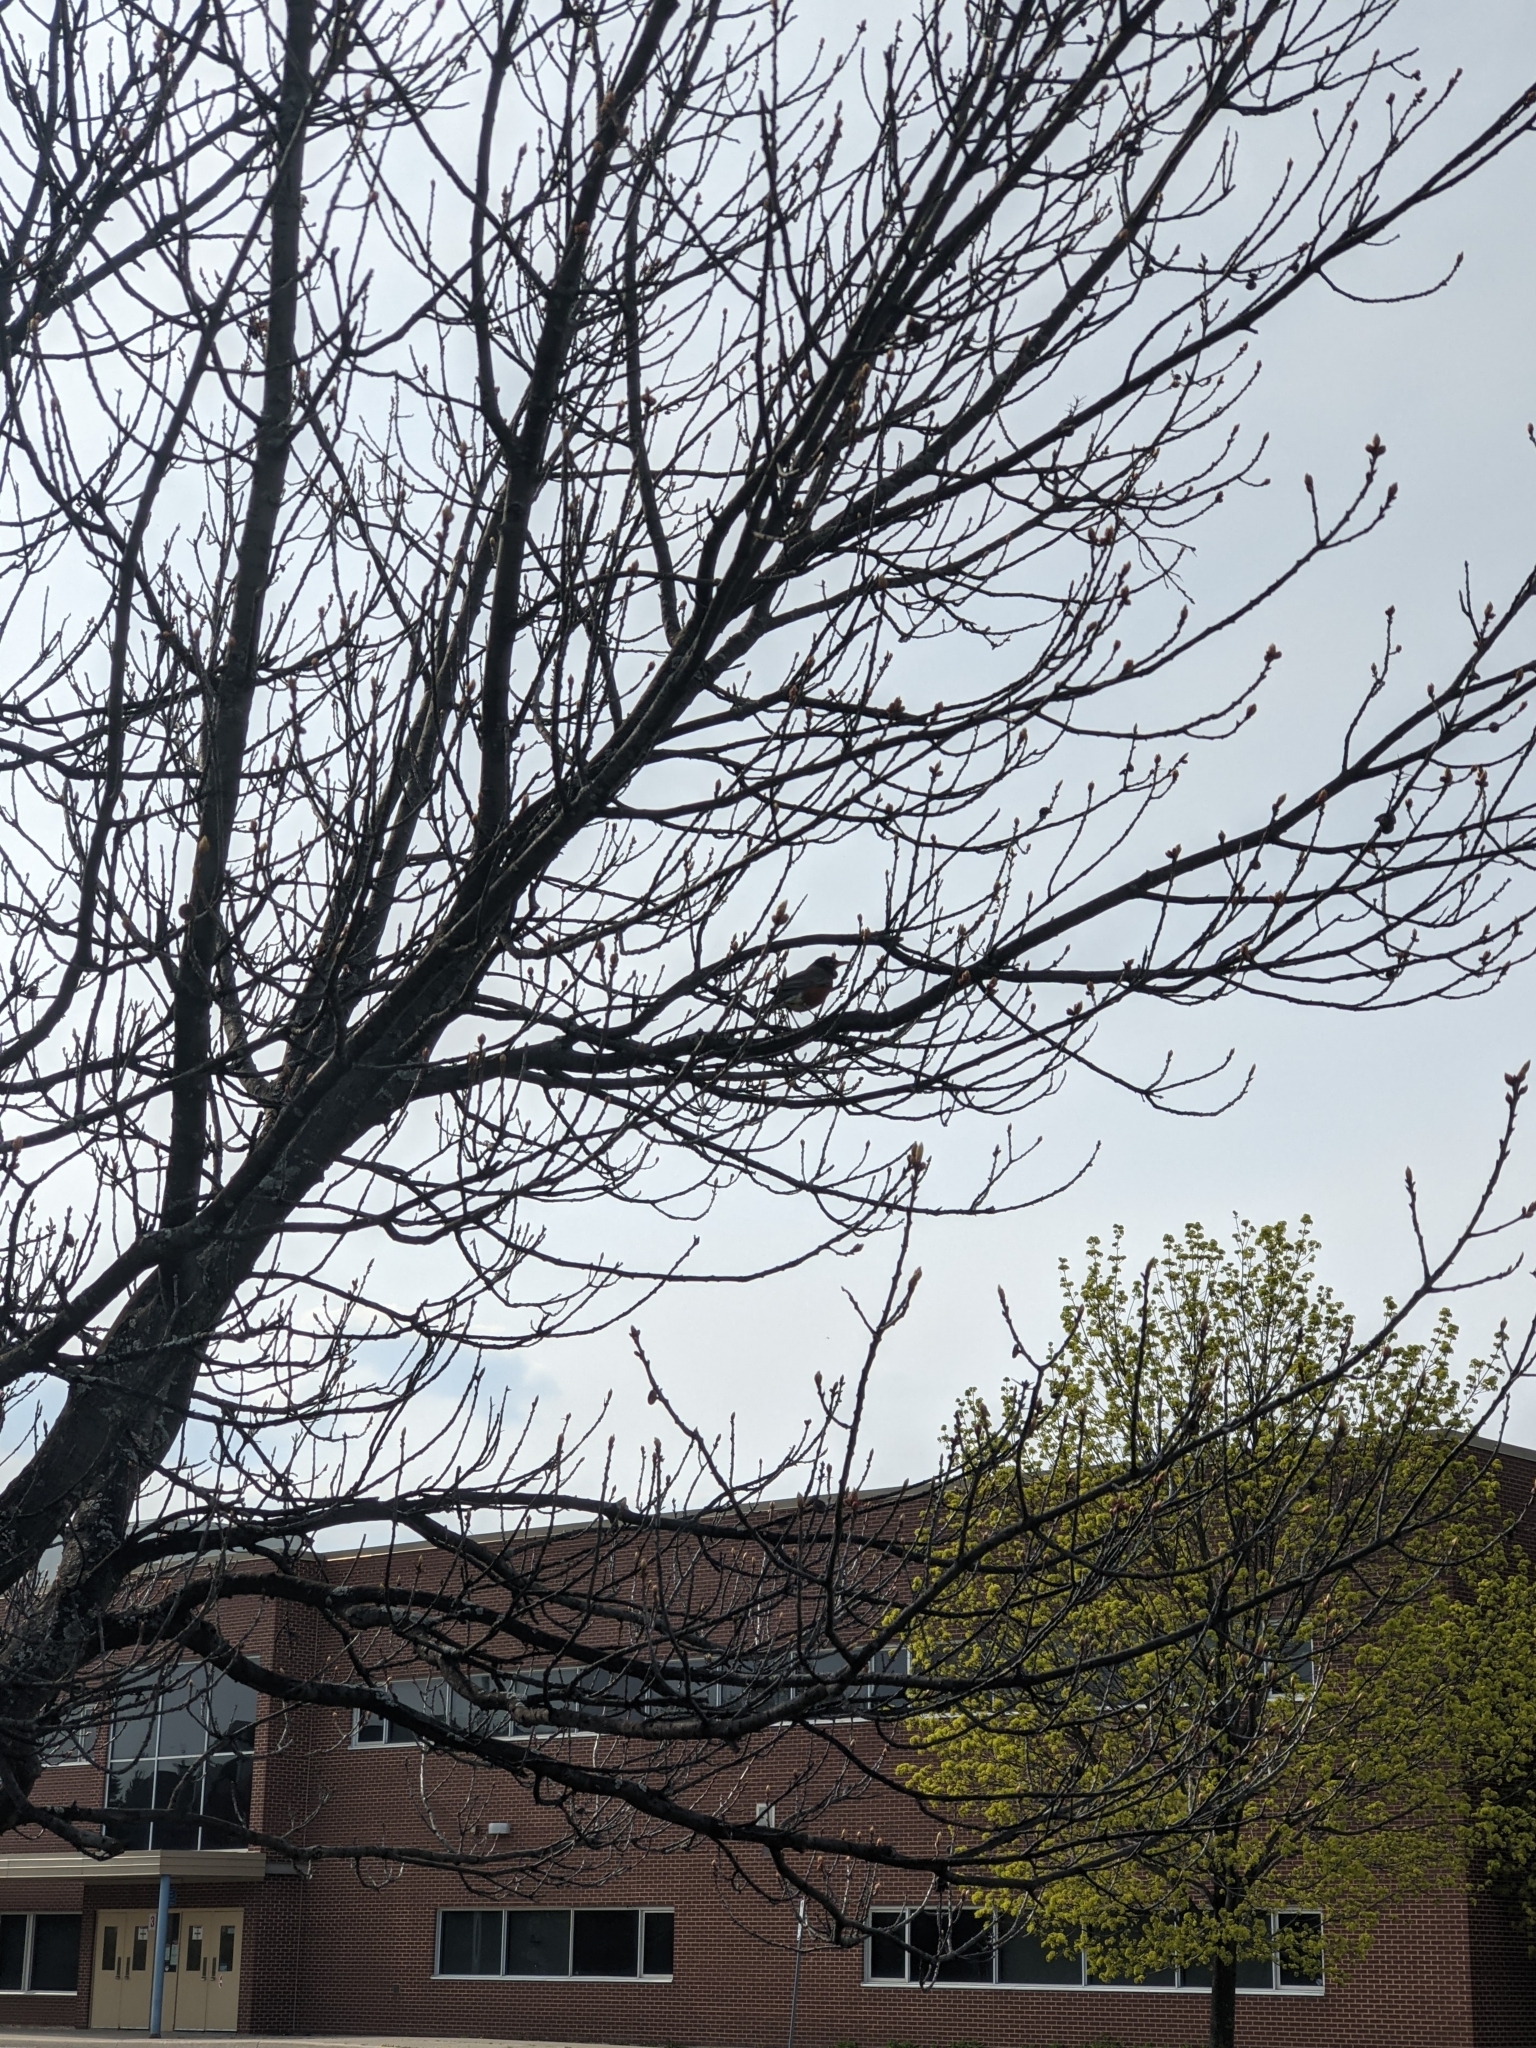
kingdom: Animalia
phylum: Chordata
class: Aves
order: Passeriformes
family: Turdidae
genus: Turdus
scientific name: Turdus migratorius
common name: American robin
